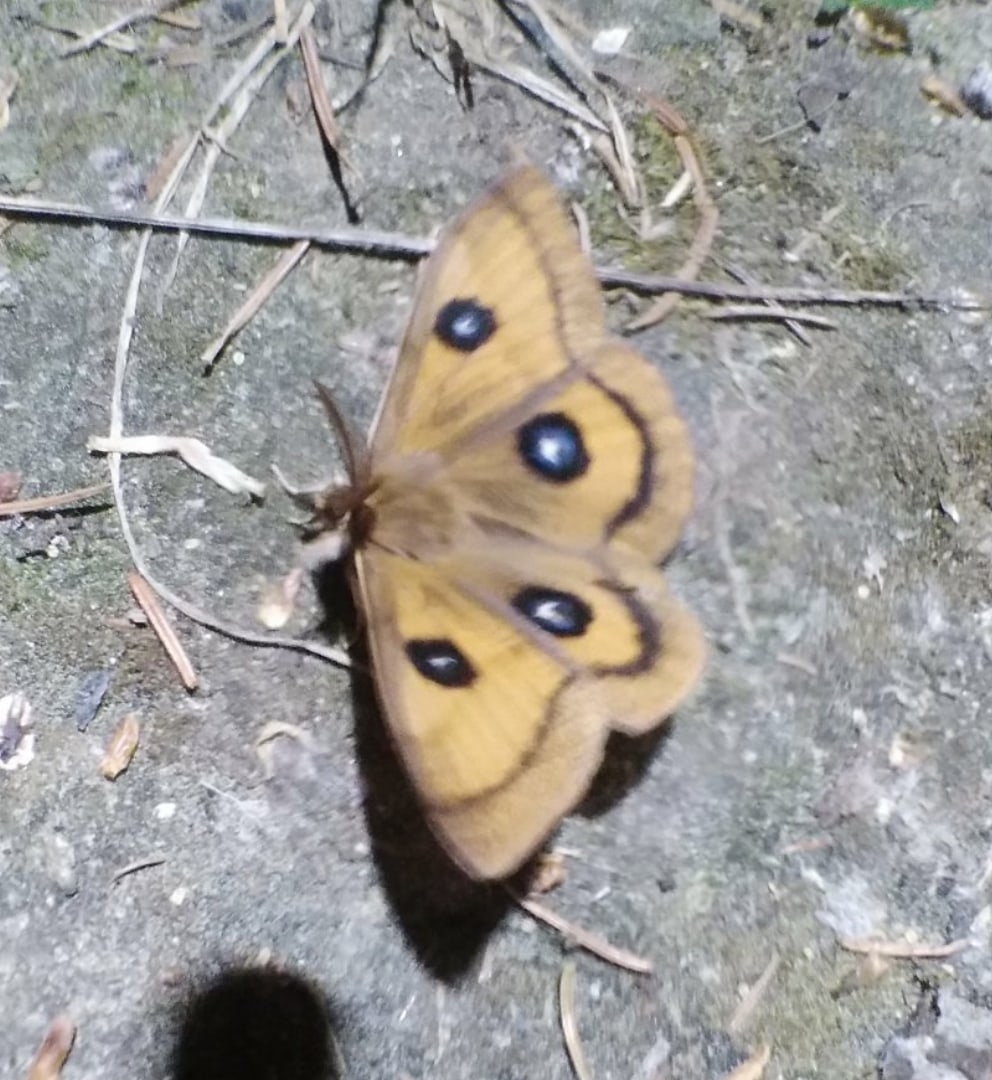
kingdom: Animalia
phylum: Arthropoda
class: Insecta
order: Lepidoptera
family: Saturniidae
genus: Aglia
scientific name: Aglia tau
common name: Tau emperor
